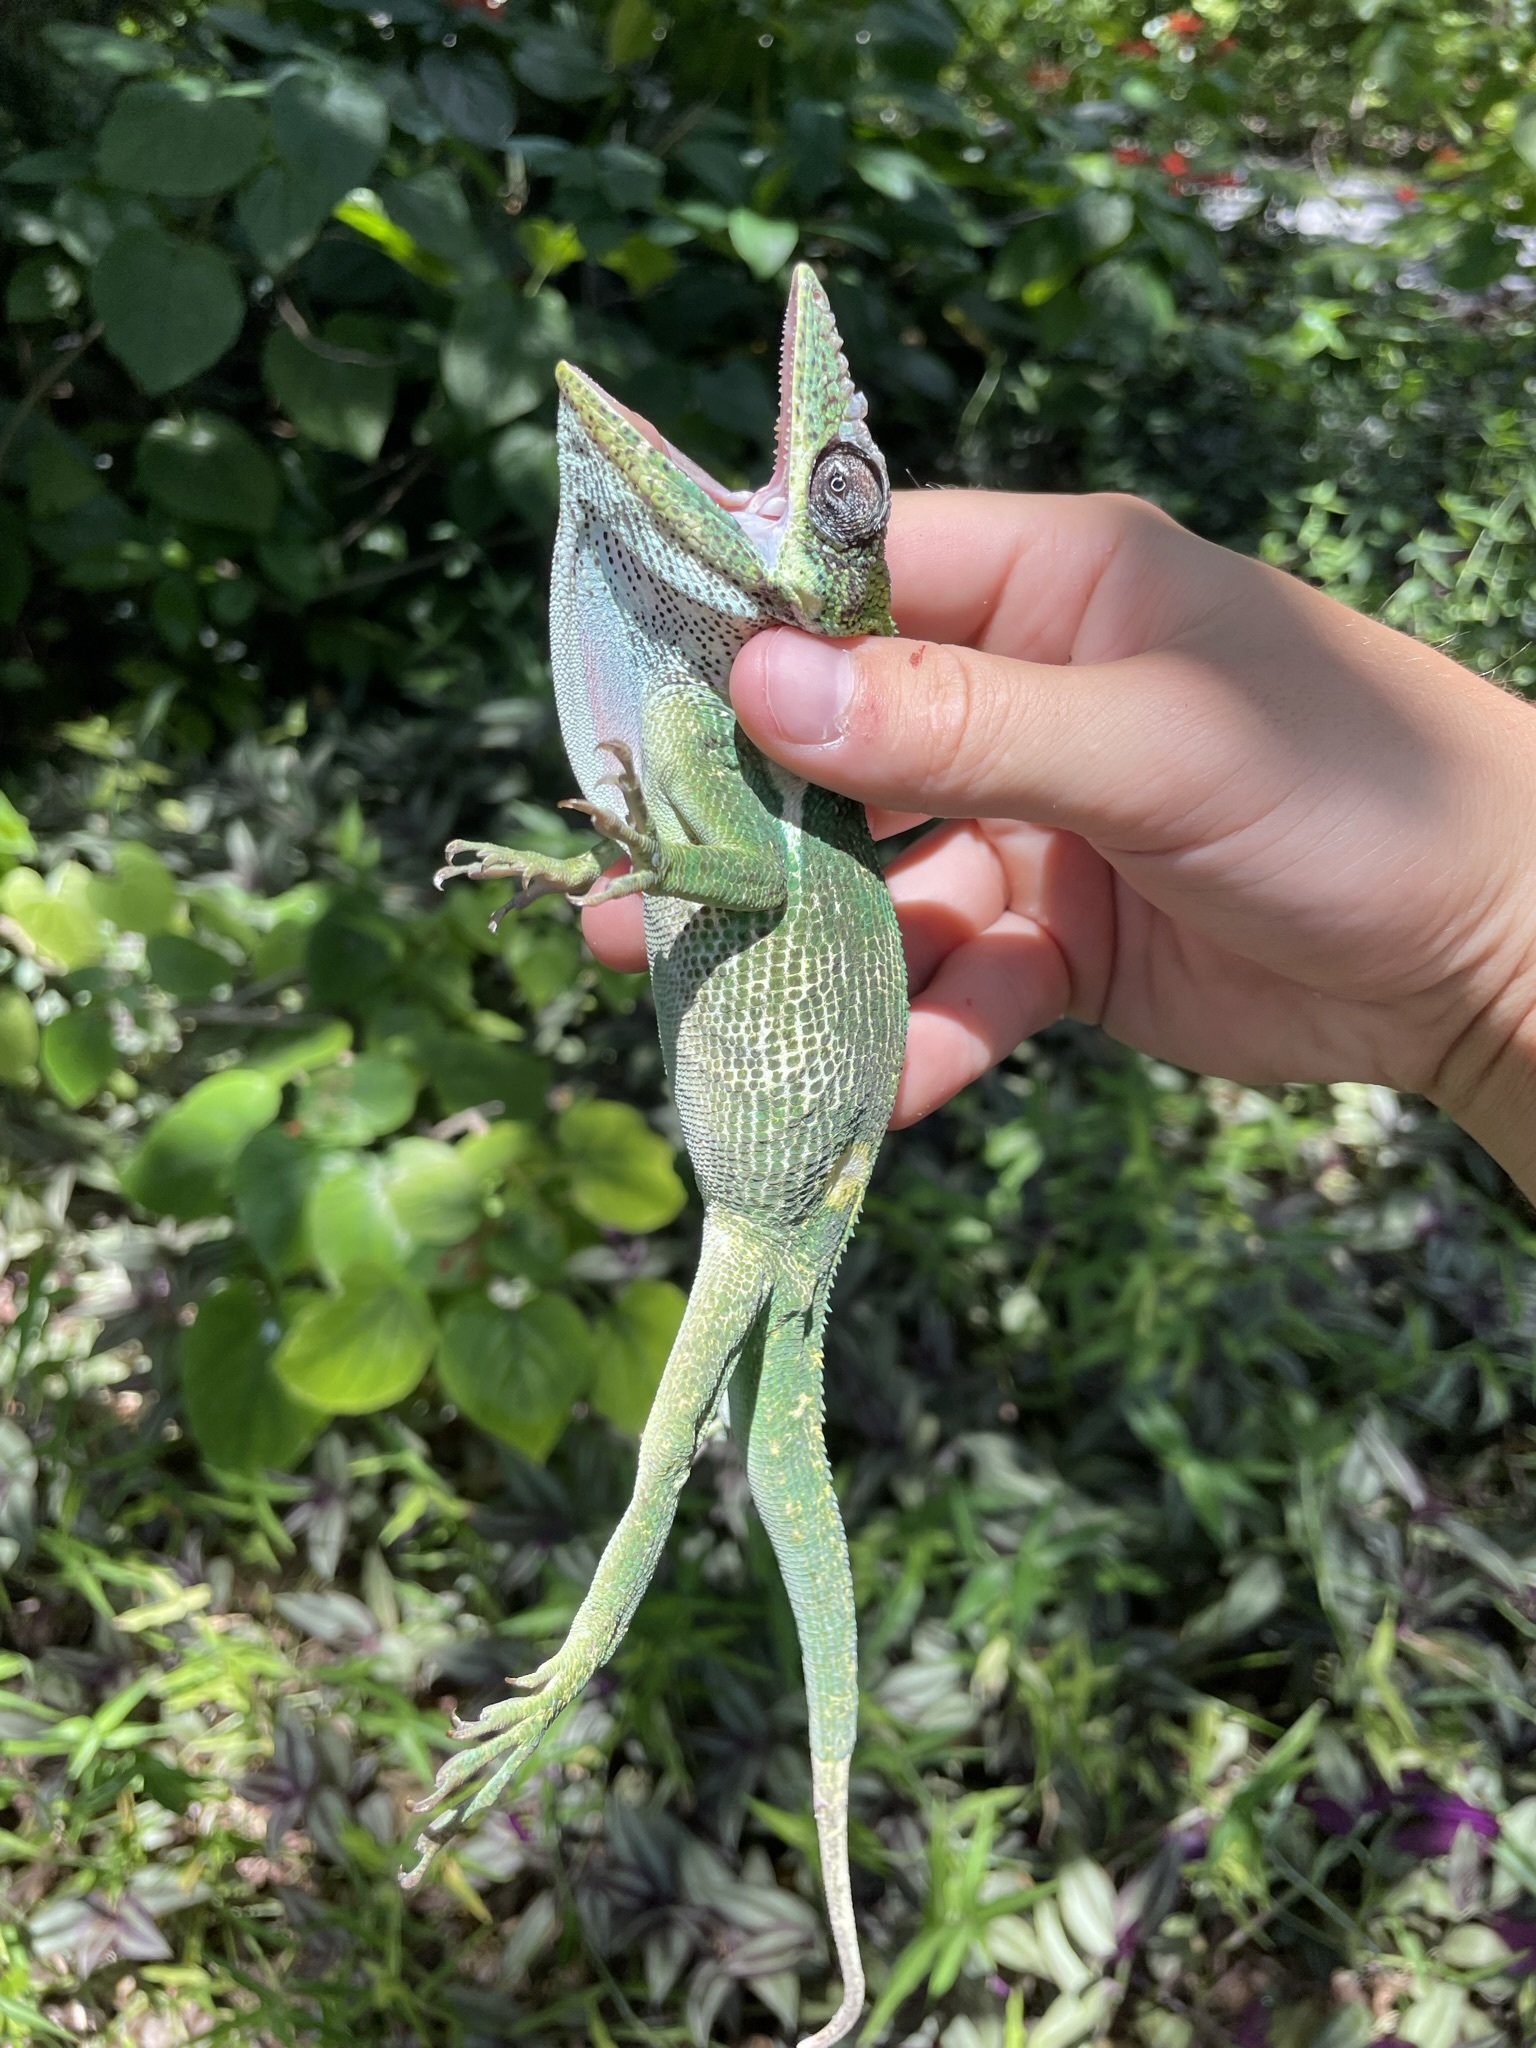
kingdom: Animalia
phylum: Chordata
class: Squamata
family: Dactyloidae
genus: Anolis
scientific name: Anolis equestris
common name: Knight anole
